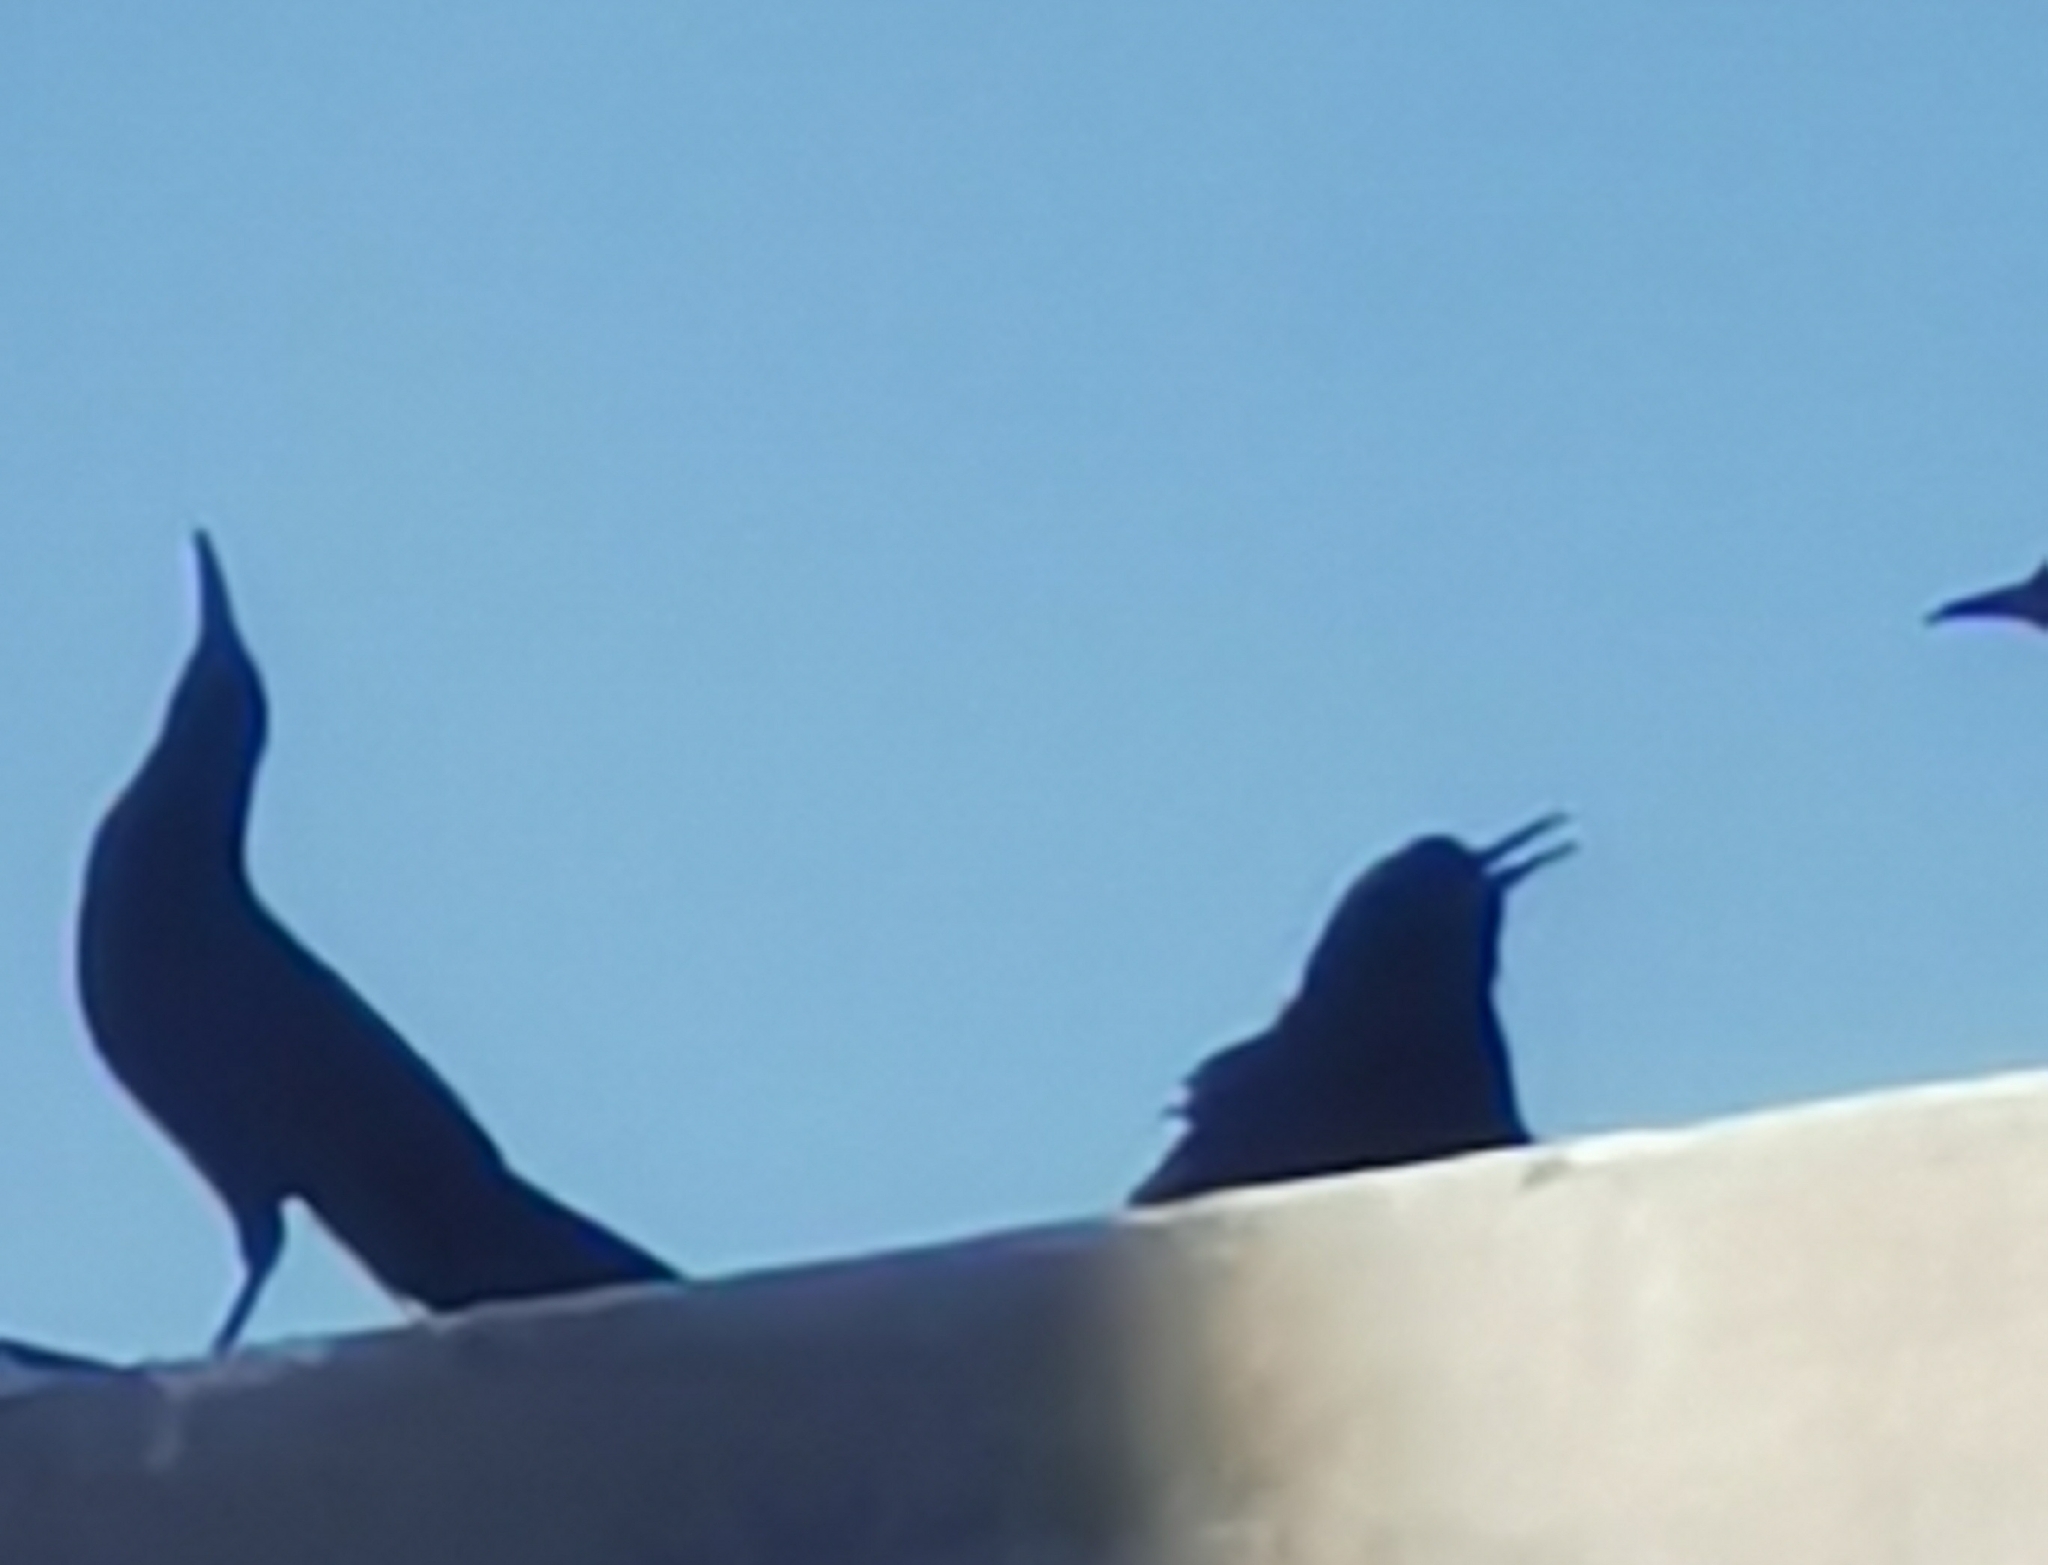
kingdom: Animalia
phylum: Chordata
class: Aves
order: Passeriformes
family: Icteridae
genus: Quiscalus
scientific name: Quiscalus mexicanus
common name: Great-tailed grackle
